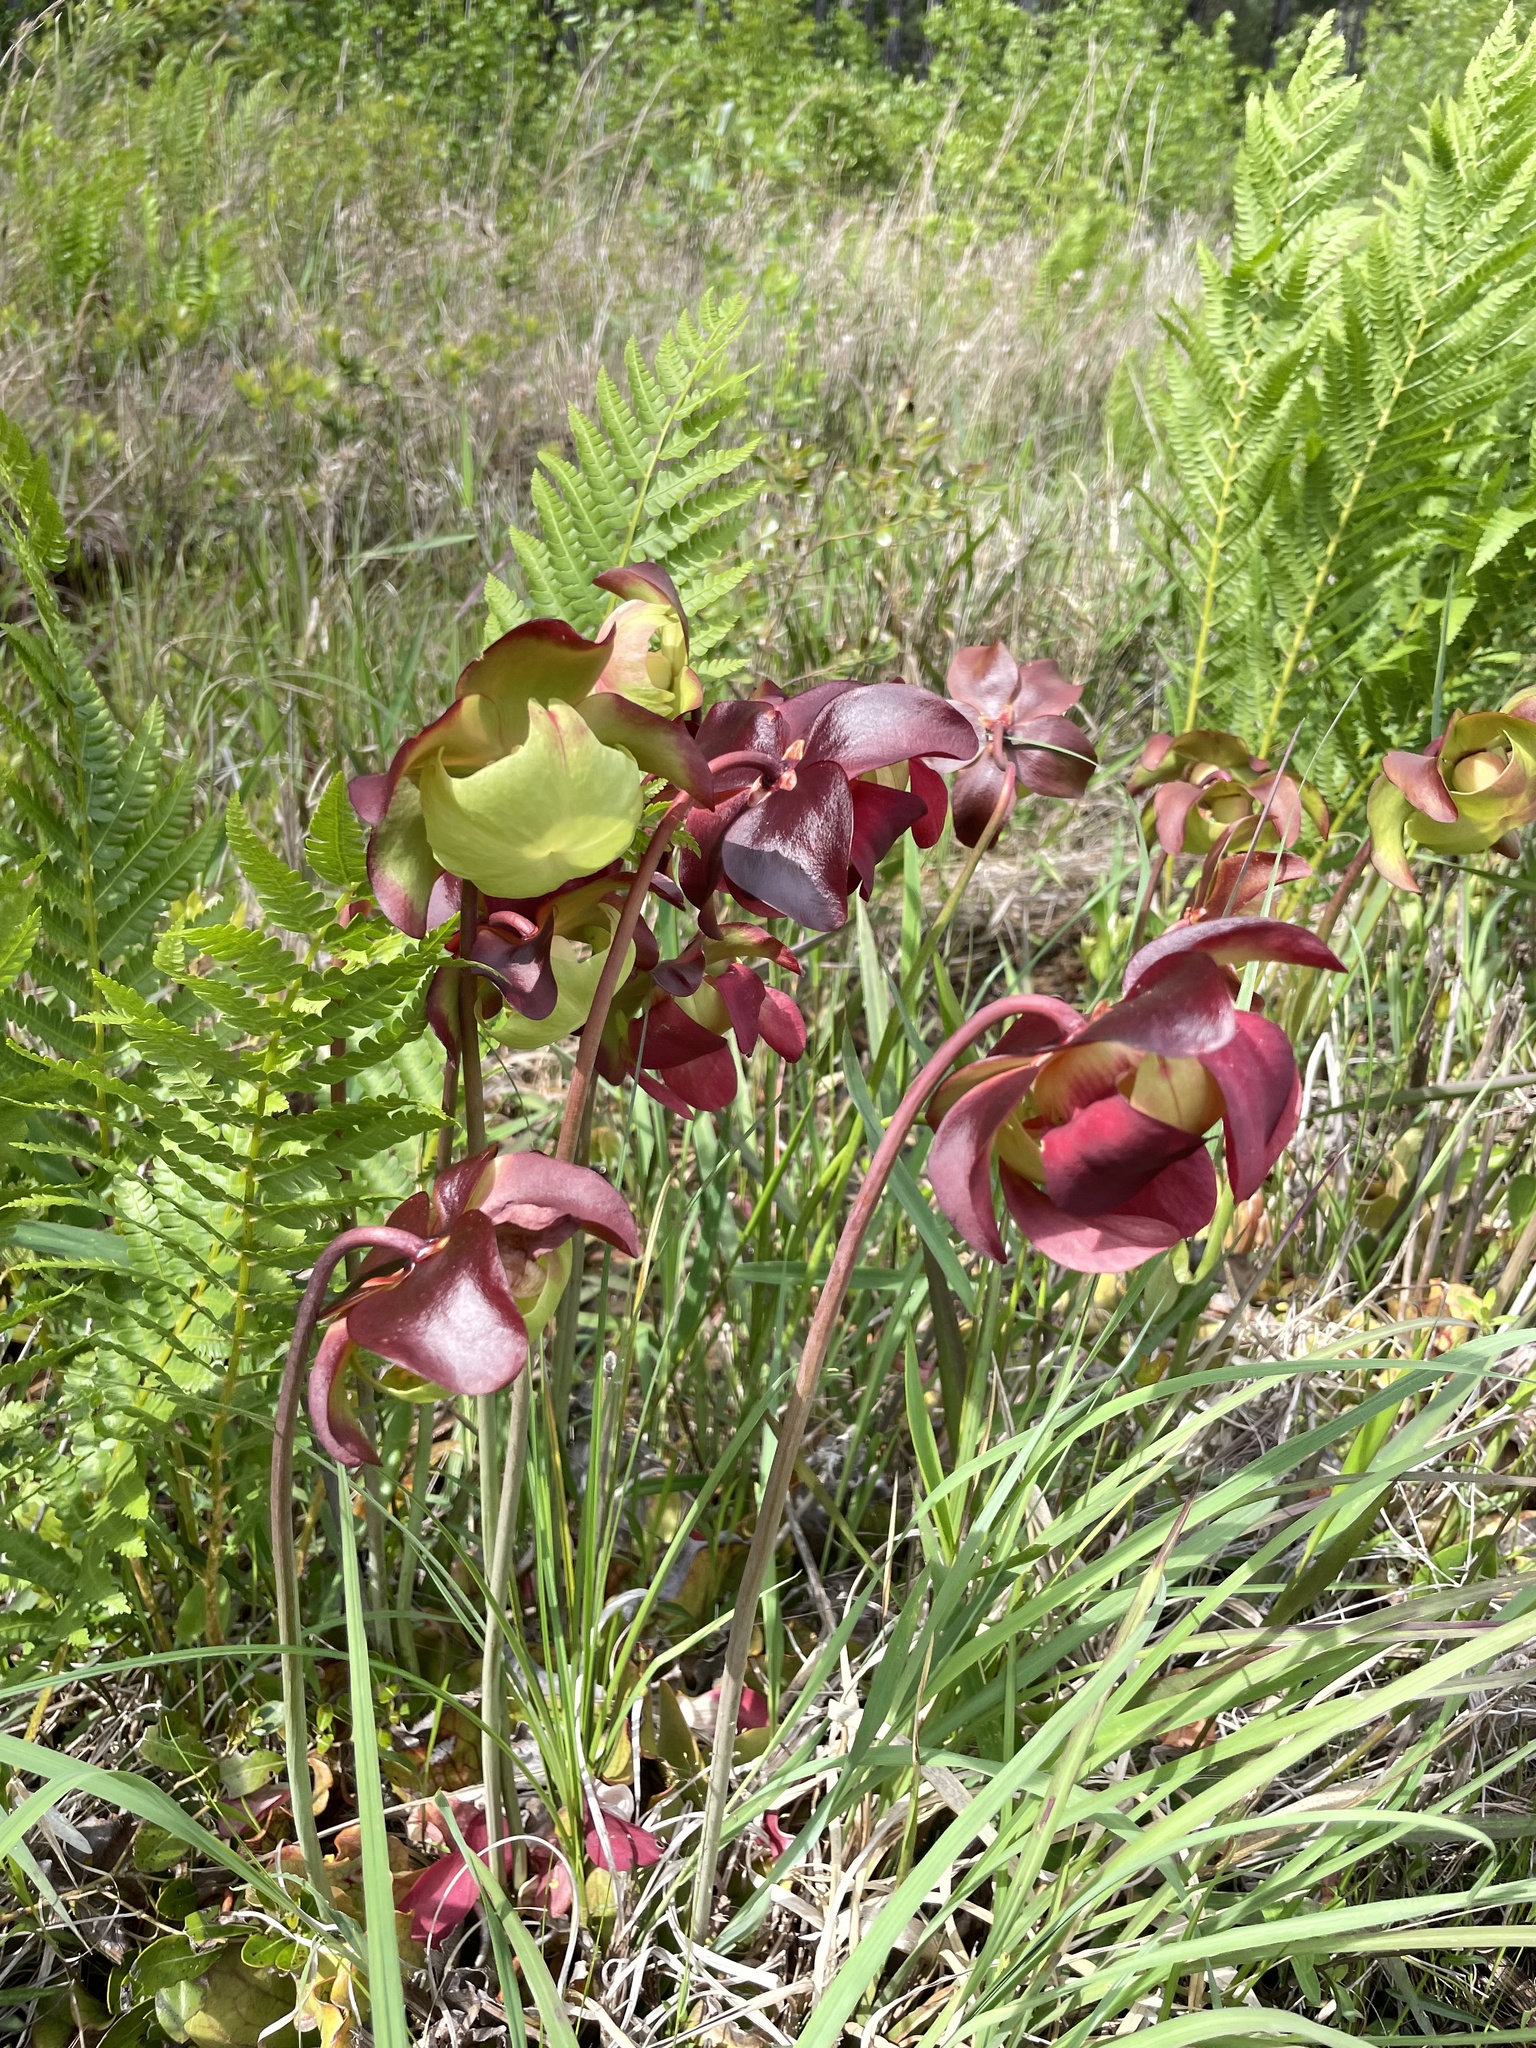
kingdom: Plantae
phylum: Tracheophyta
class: Magnoliopsida
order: Ericales
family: Sarraceniaceae
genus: Sarracenia
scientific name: Sarracenia purpurea
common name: Pitcherplant
